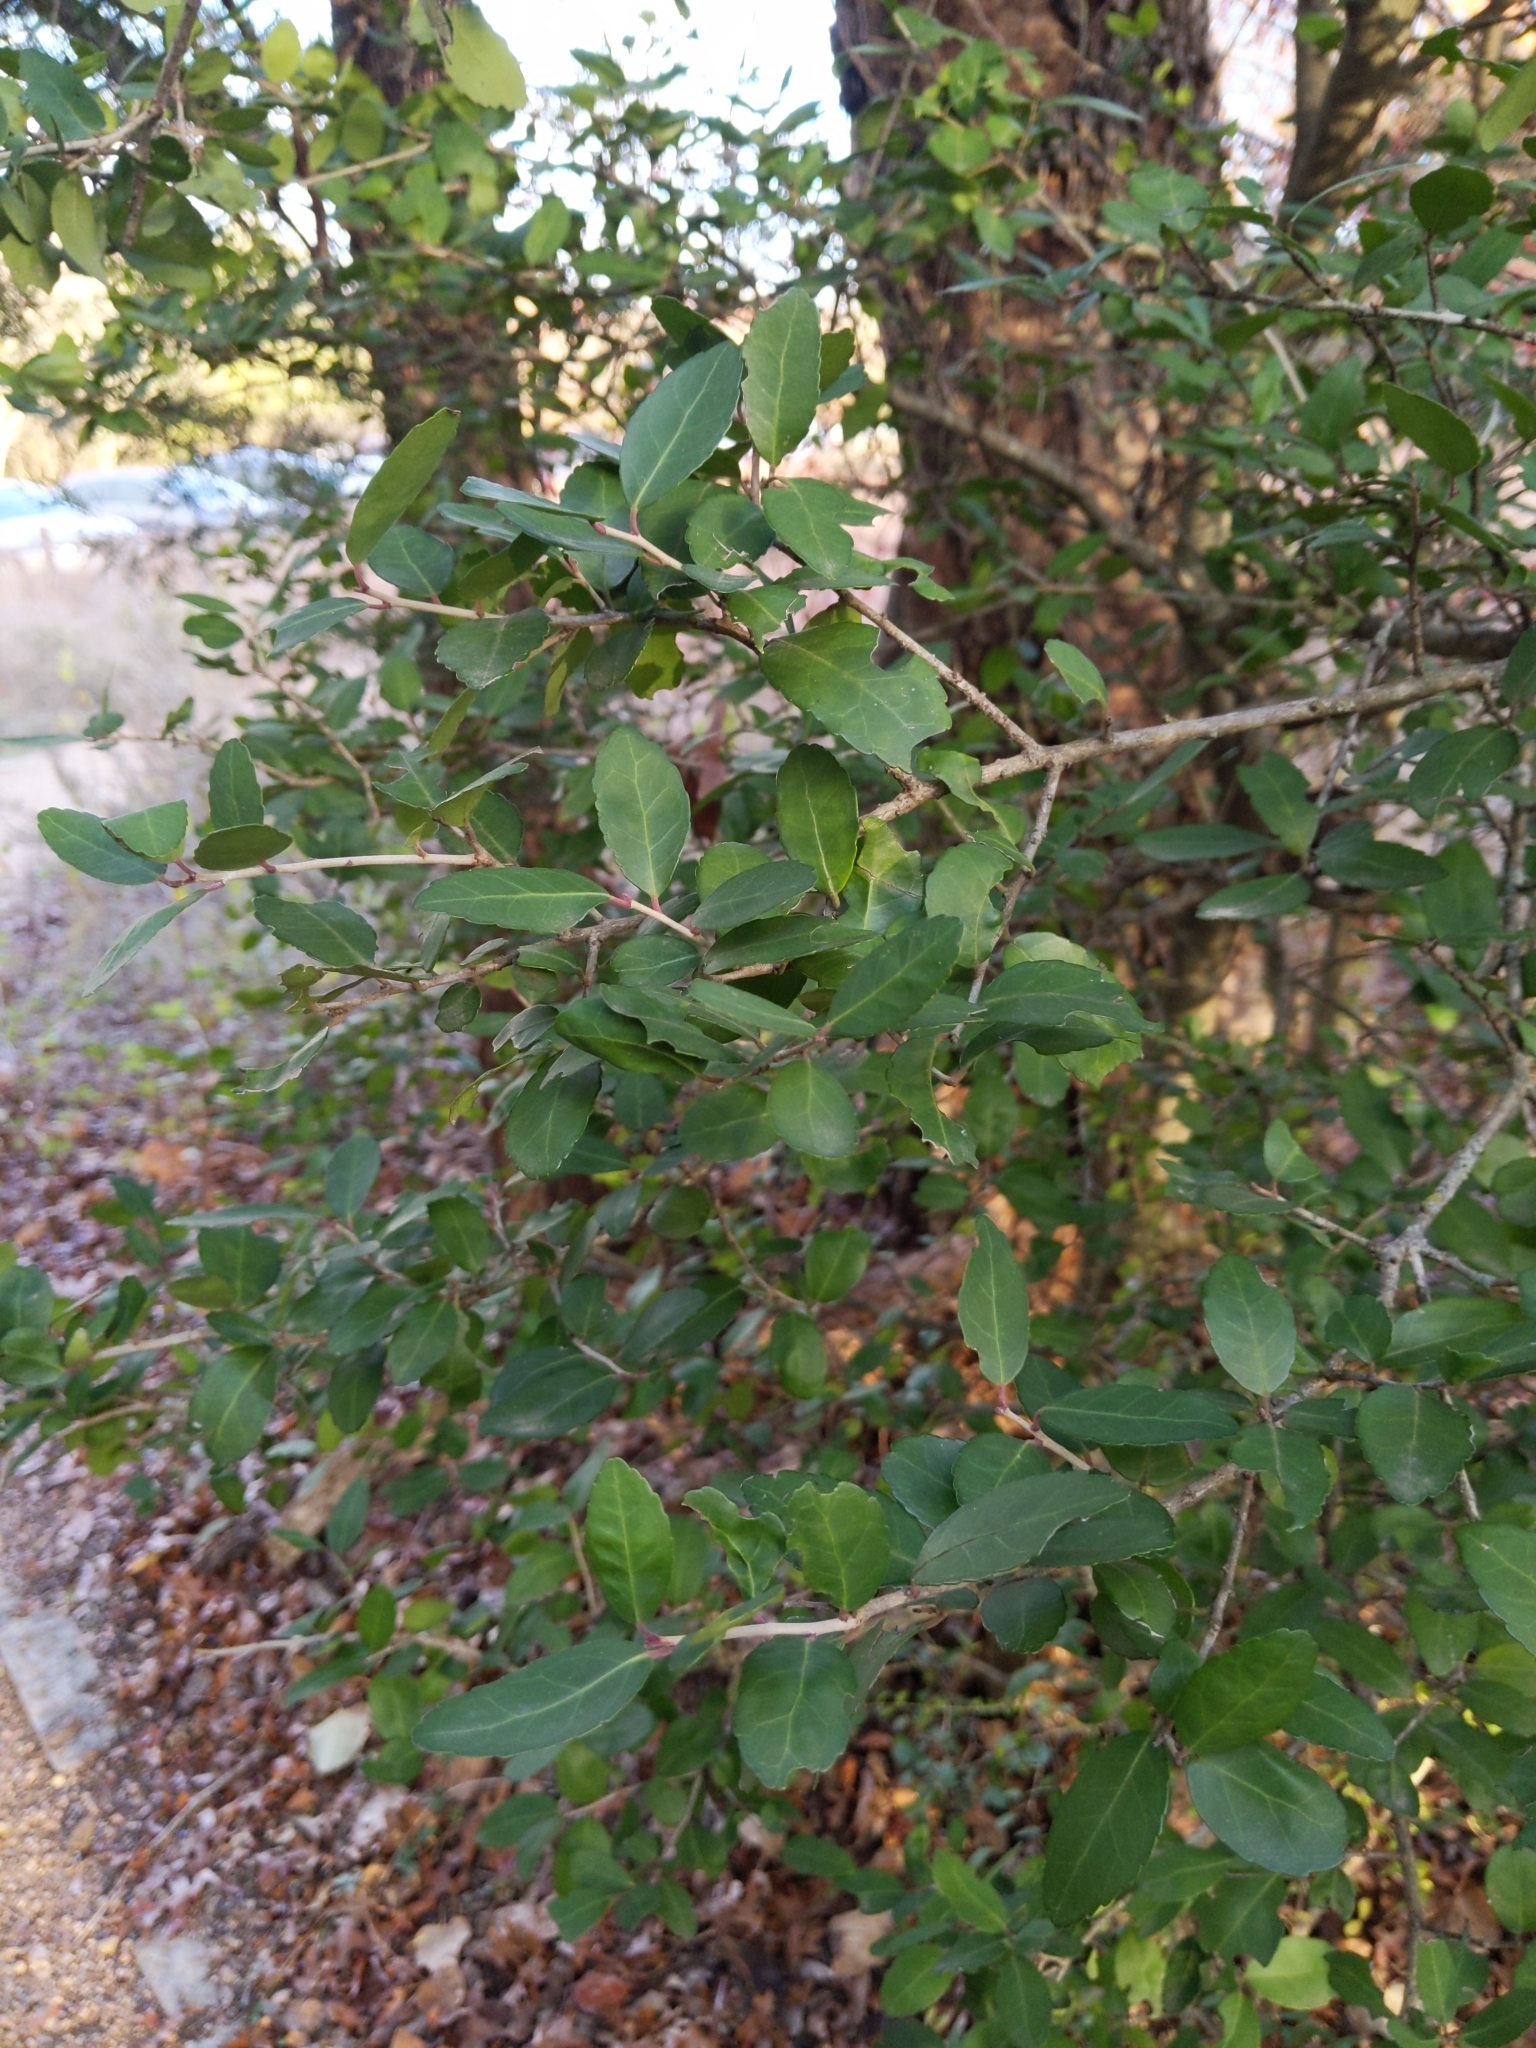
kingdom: Plantae
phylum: Tracheophyta
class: Magnoliopsida
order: Aquifoliales
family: Aquifoliaceae
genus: Ilex
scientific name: Ilex vomitoria
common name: Yaupon holly
